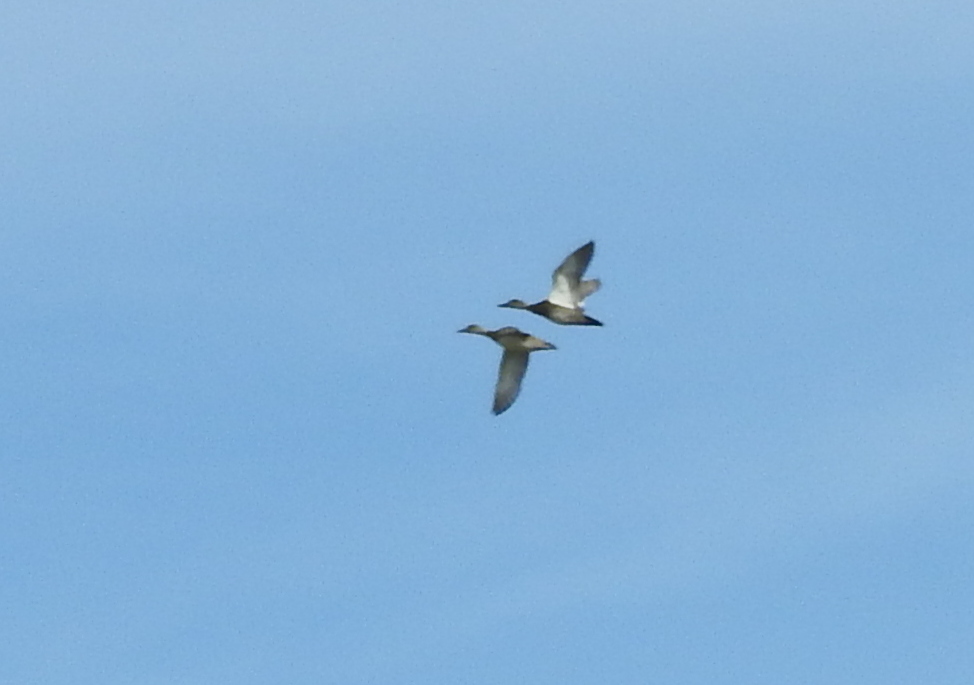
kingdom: Animalia
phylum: Chordata
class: Aves
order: Anseriformes
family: Anatidae
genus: Mareca
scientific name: Mareca strepera
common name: Gadwall
